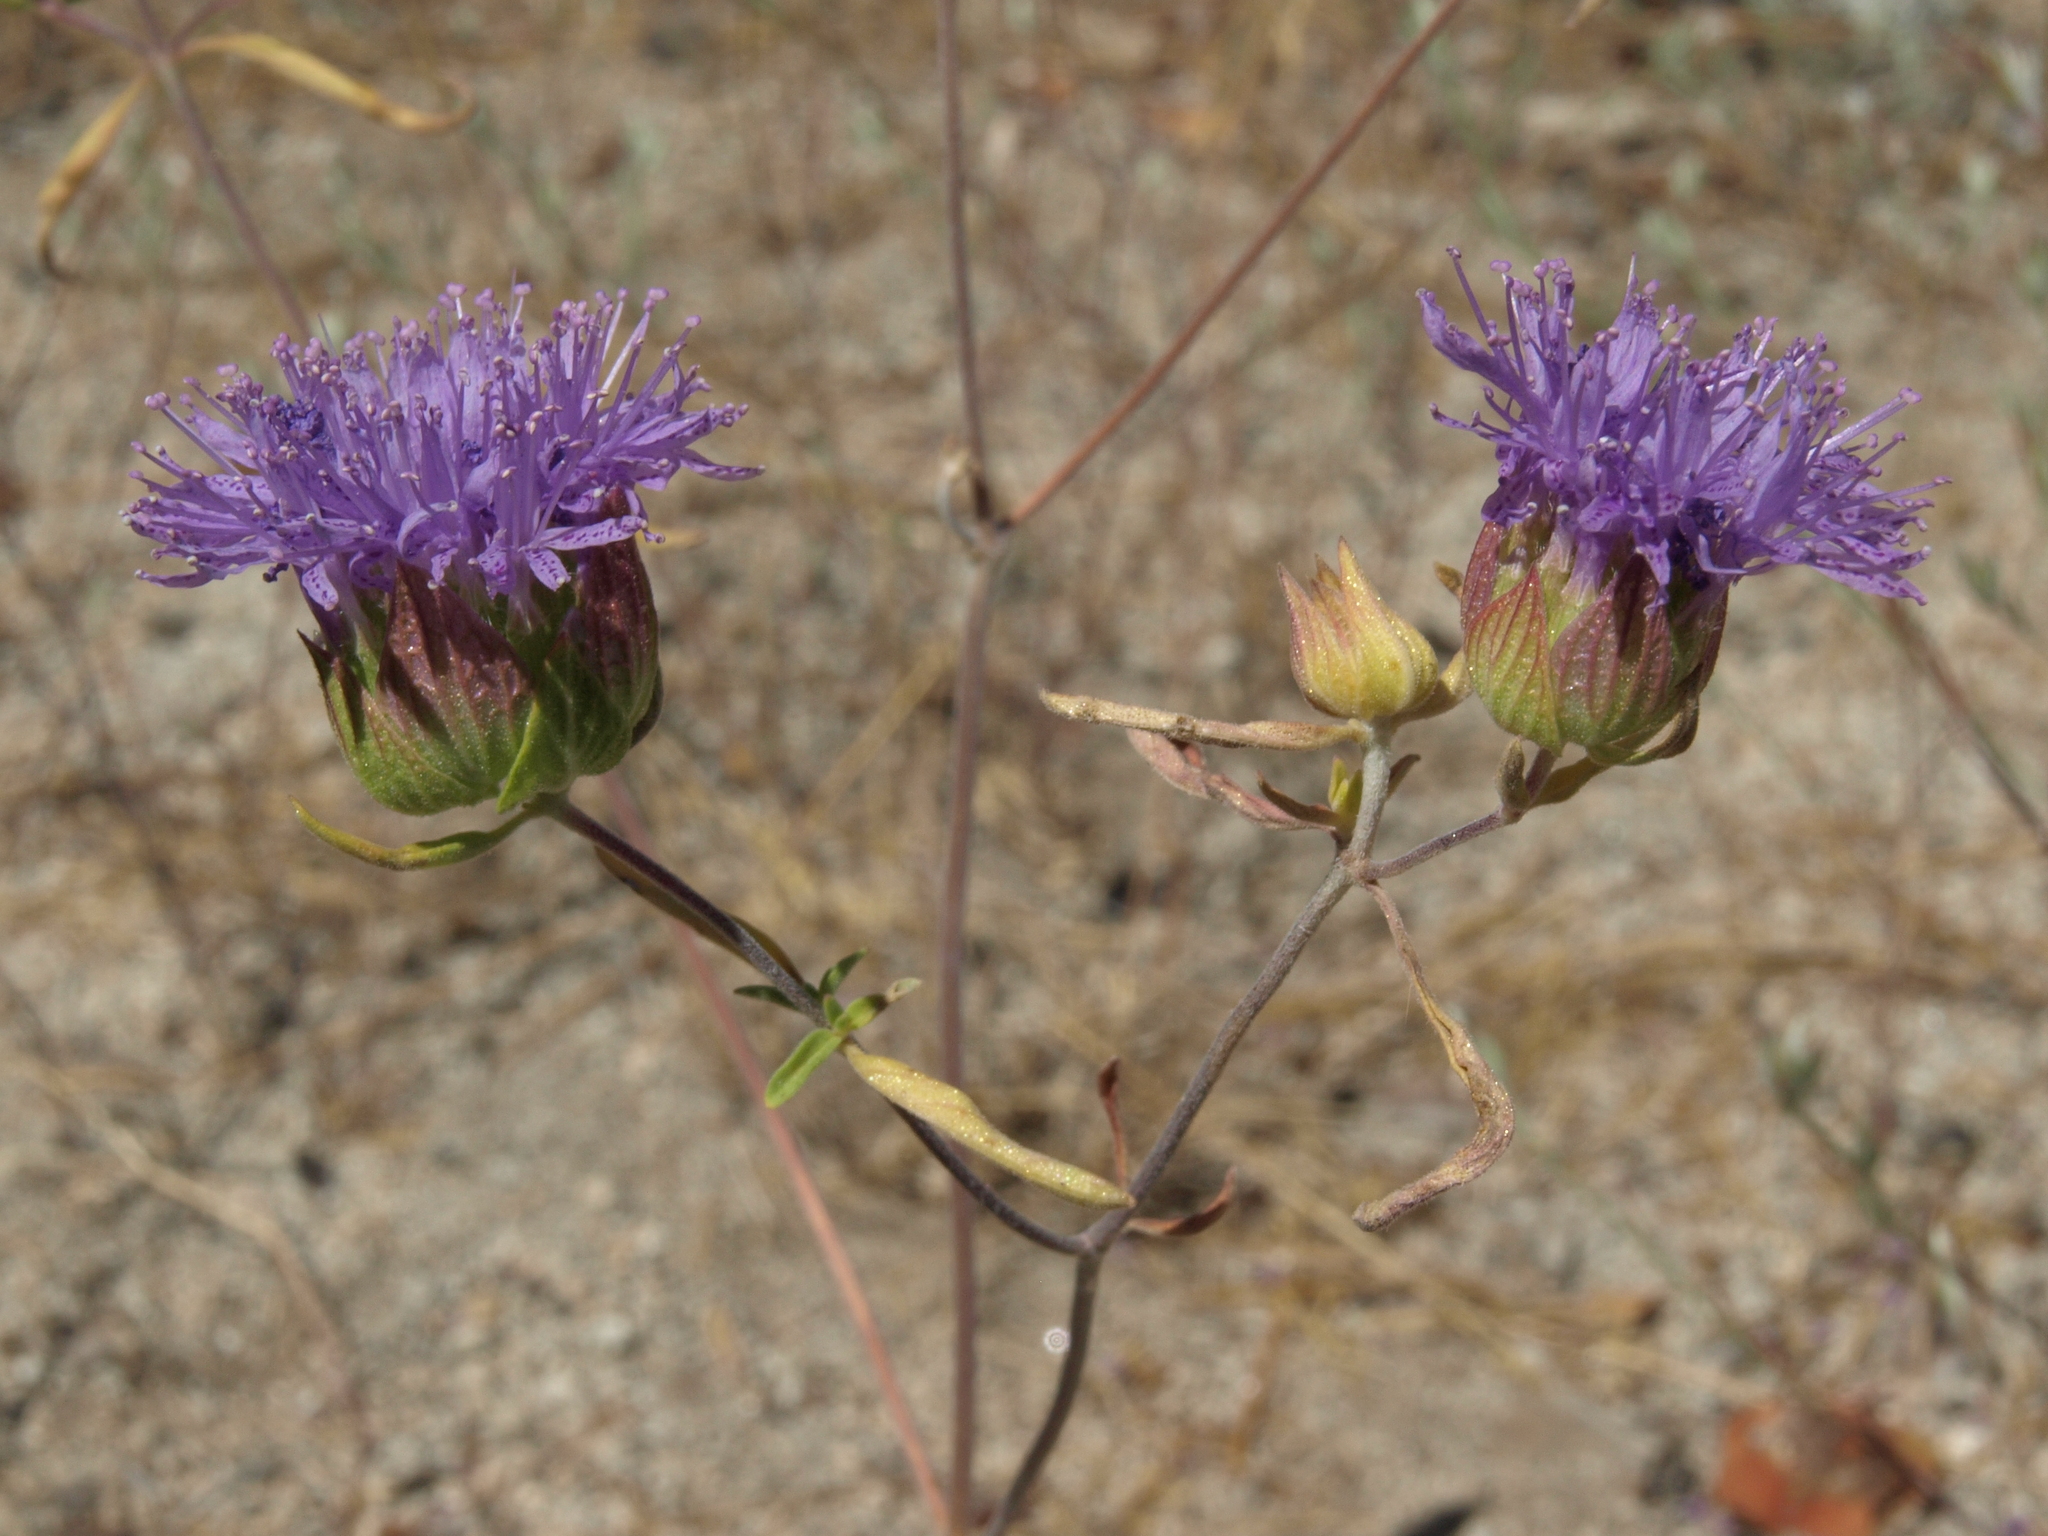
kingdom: Plantae
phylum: Tracheophyta
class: Magnoliopsida
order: Lamiales
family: Lamiaceae
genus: Monardella
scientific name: Monardella breweri
